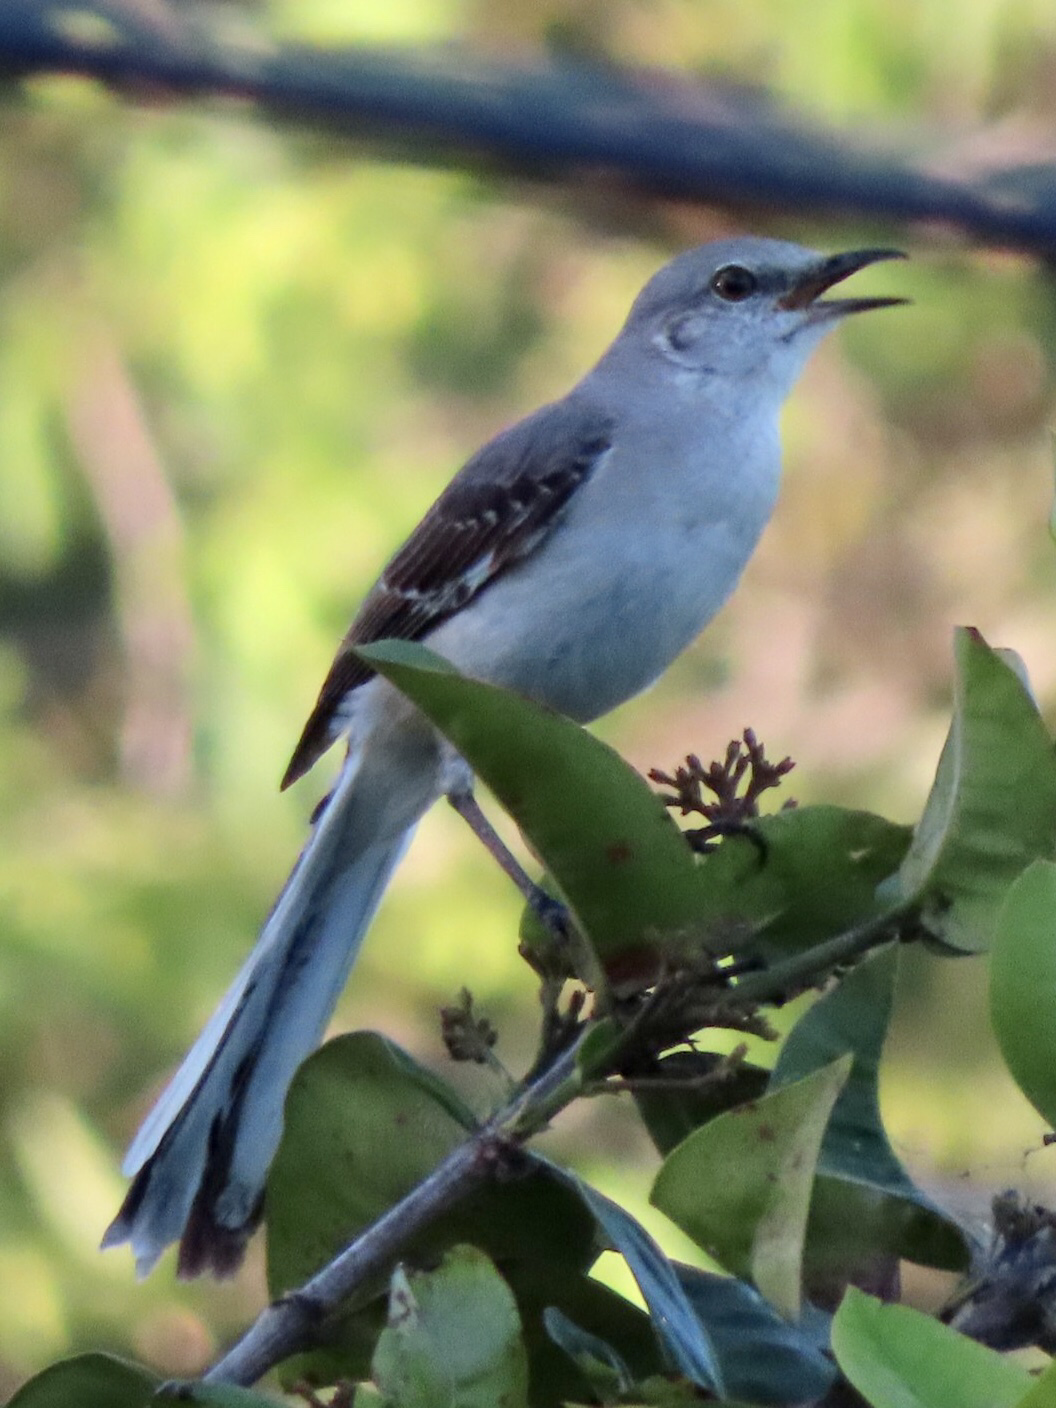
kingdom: Animalia
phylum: Chordata
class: Aves
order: Passeriformes
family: Mimidae
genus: Mimus
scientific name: Mimus polyglottos
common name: Northern mockingbird
